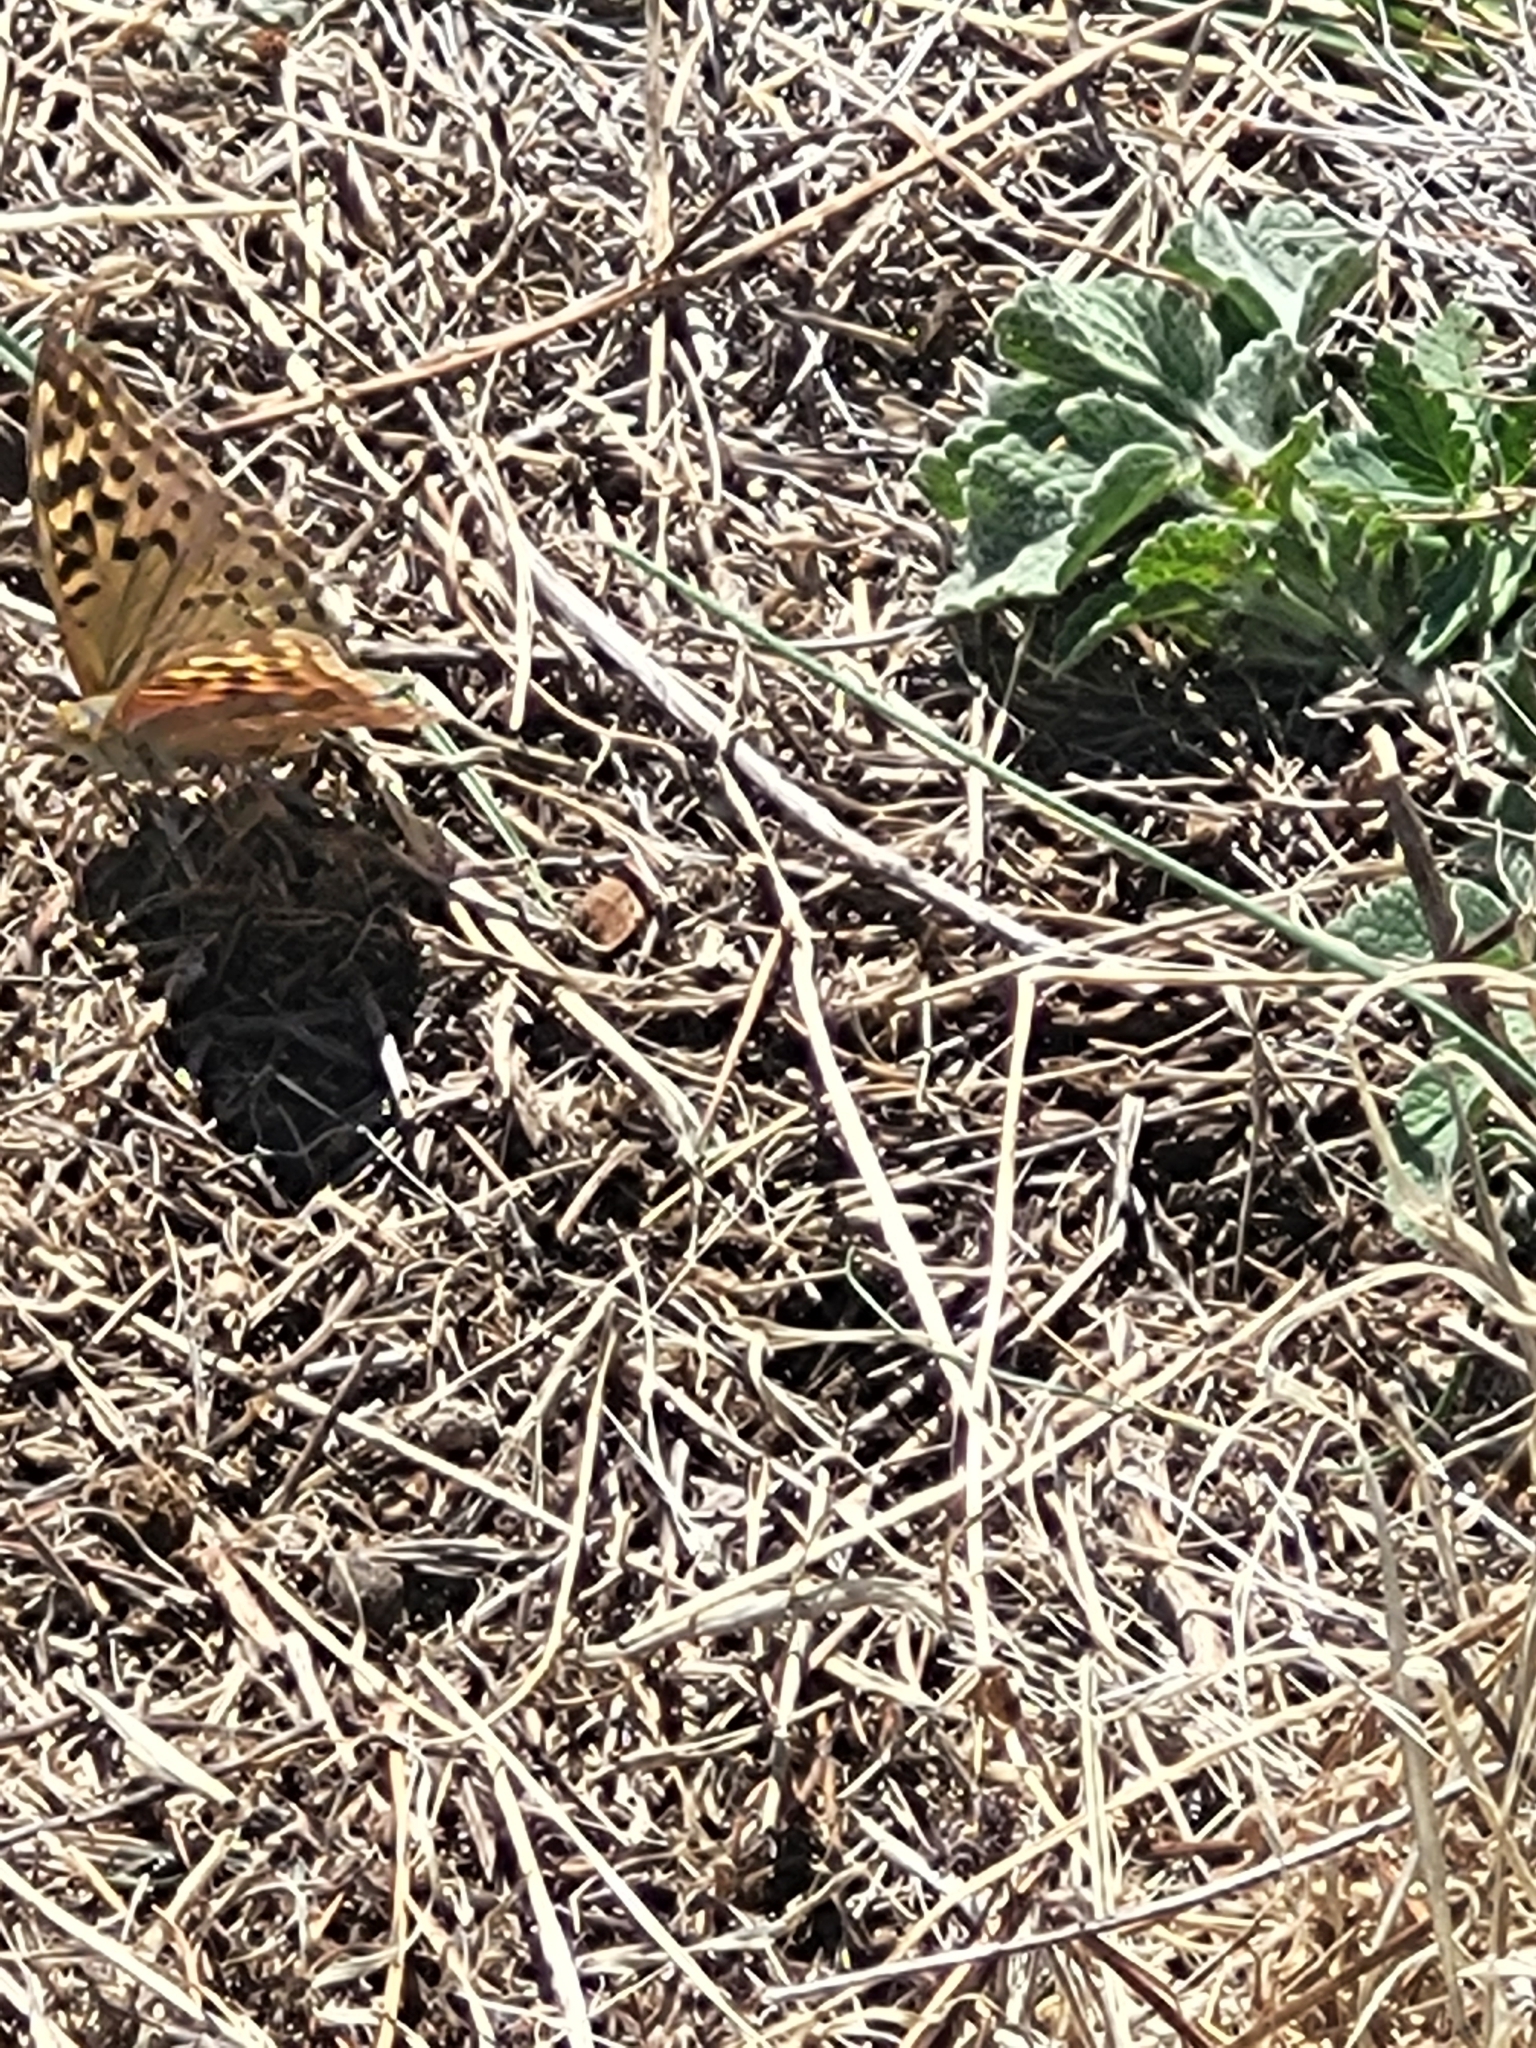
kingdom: Animalia
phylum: Arthropoda
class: Insecta
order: Lepidoptera
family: Nymphalidae
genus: Damora
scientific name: Damora pandora
